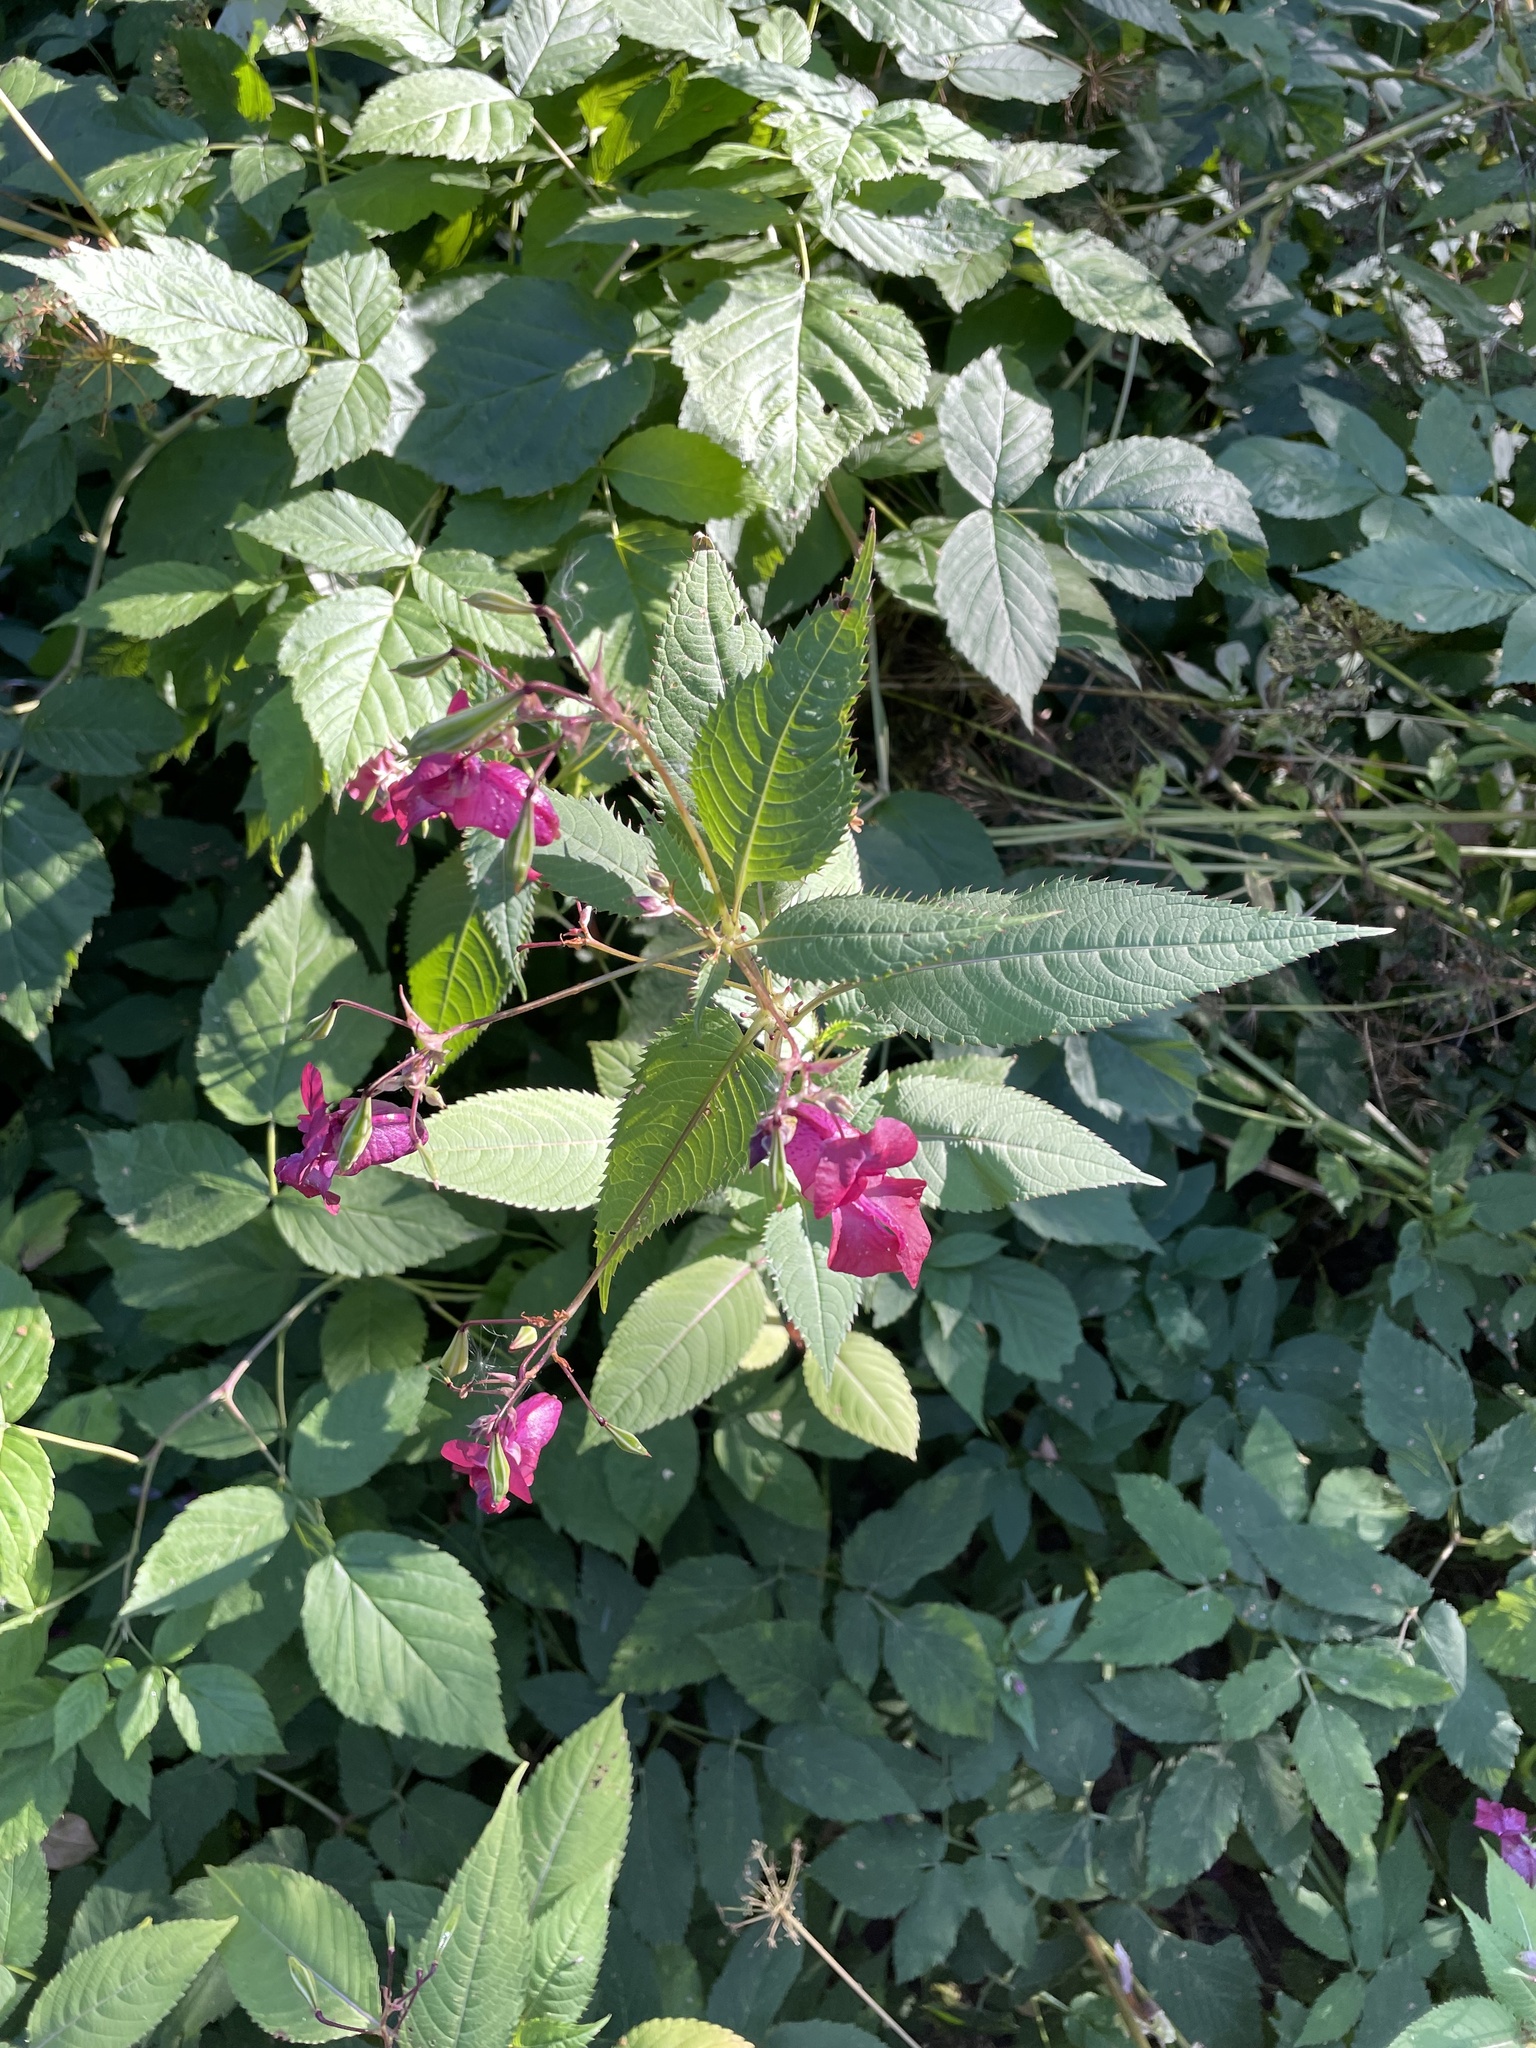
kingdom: Plantae
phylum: Tracheophyta
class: Magnoliopsida
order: Ericales
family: Balsaminaceae
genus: Impatiens
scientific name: Impatiens glandulifera
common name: Himalayan balsam
